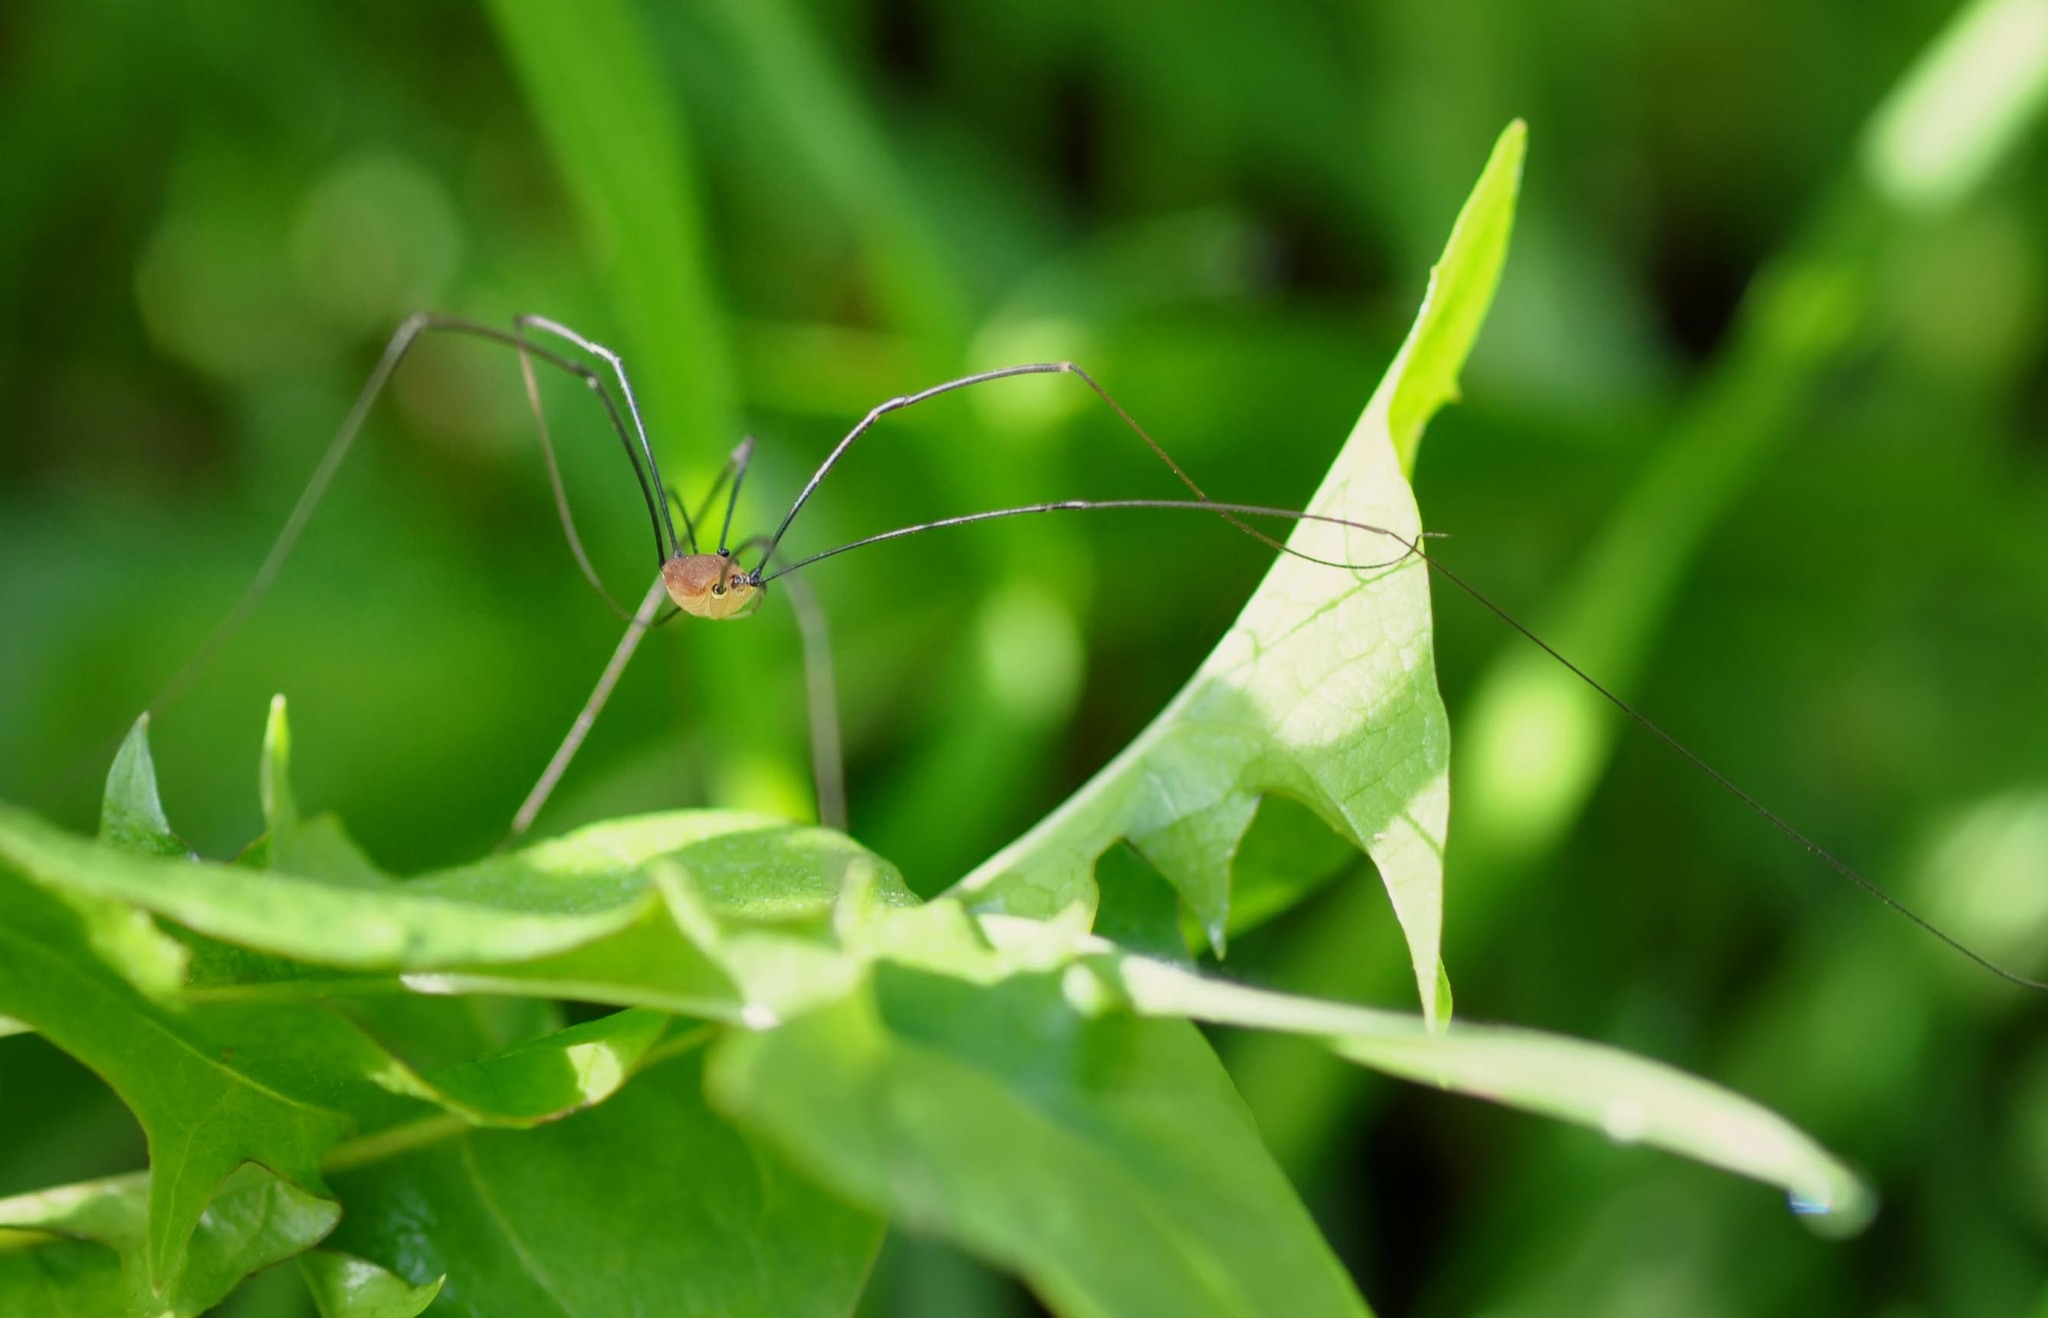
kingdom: Animalia
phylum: Arthropoda
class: Arachnida
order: Opiliones
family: Sclerosomatidae
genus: Leiobunum
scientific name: Leiobunum rotundum
